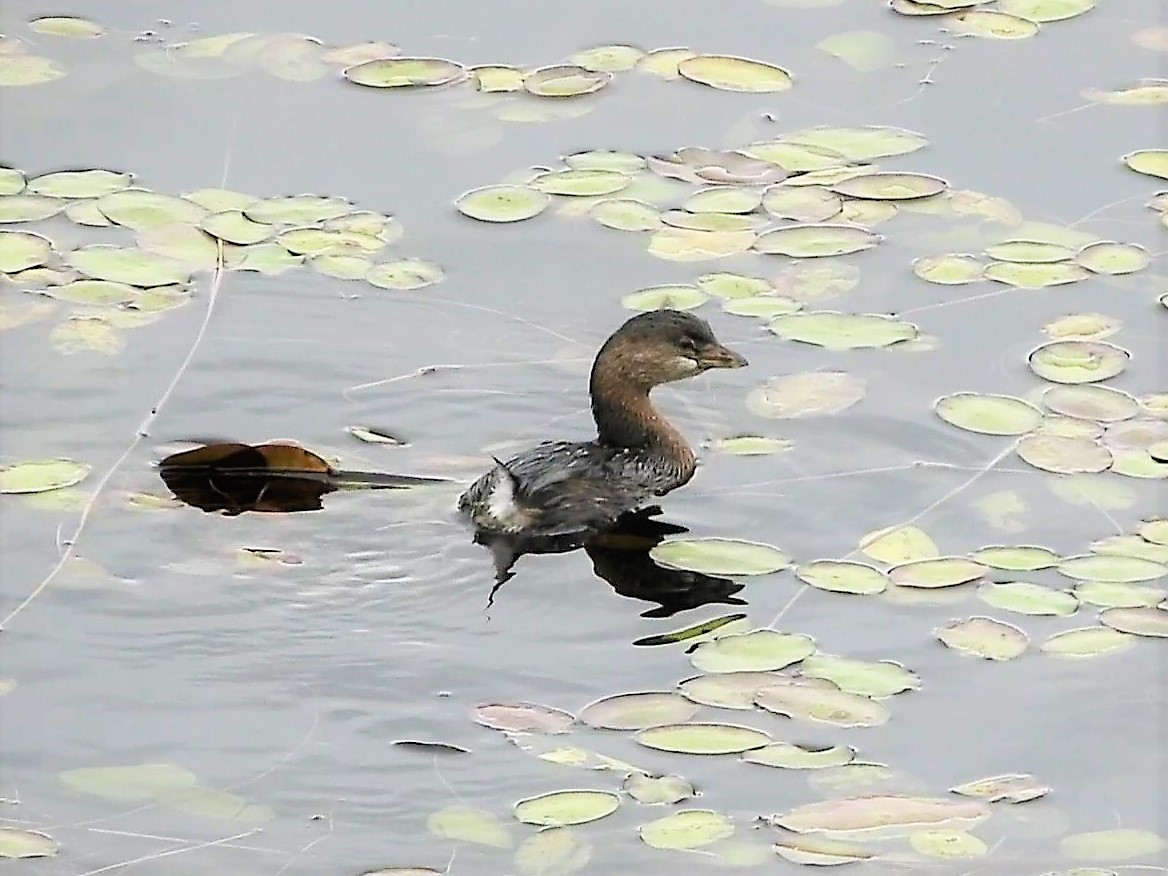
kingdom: Animalia
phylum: Chordata
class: Aves
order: Podicipediformes
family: Podicipedidae
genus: Podilymbus
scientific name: Podilymbus podiceps
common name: Pied-billed grebe
